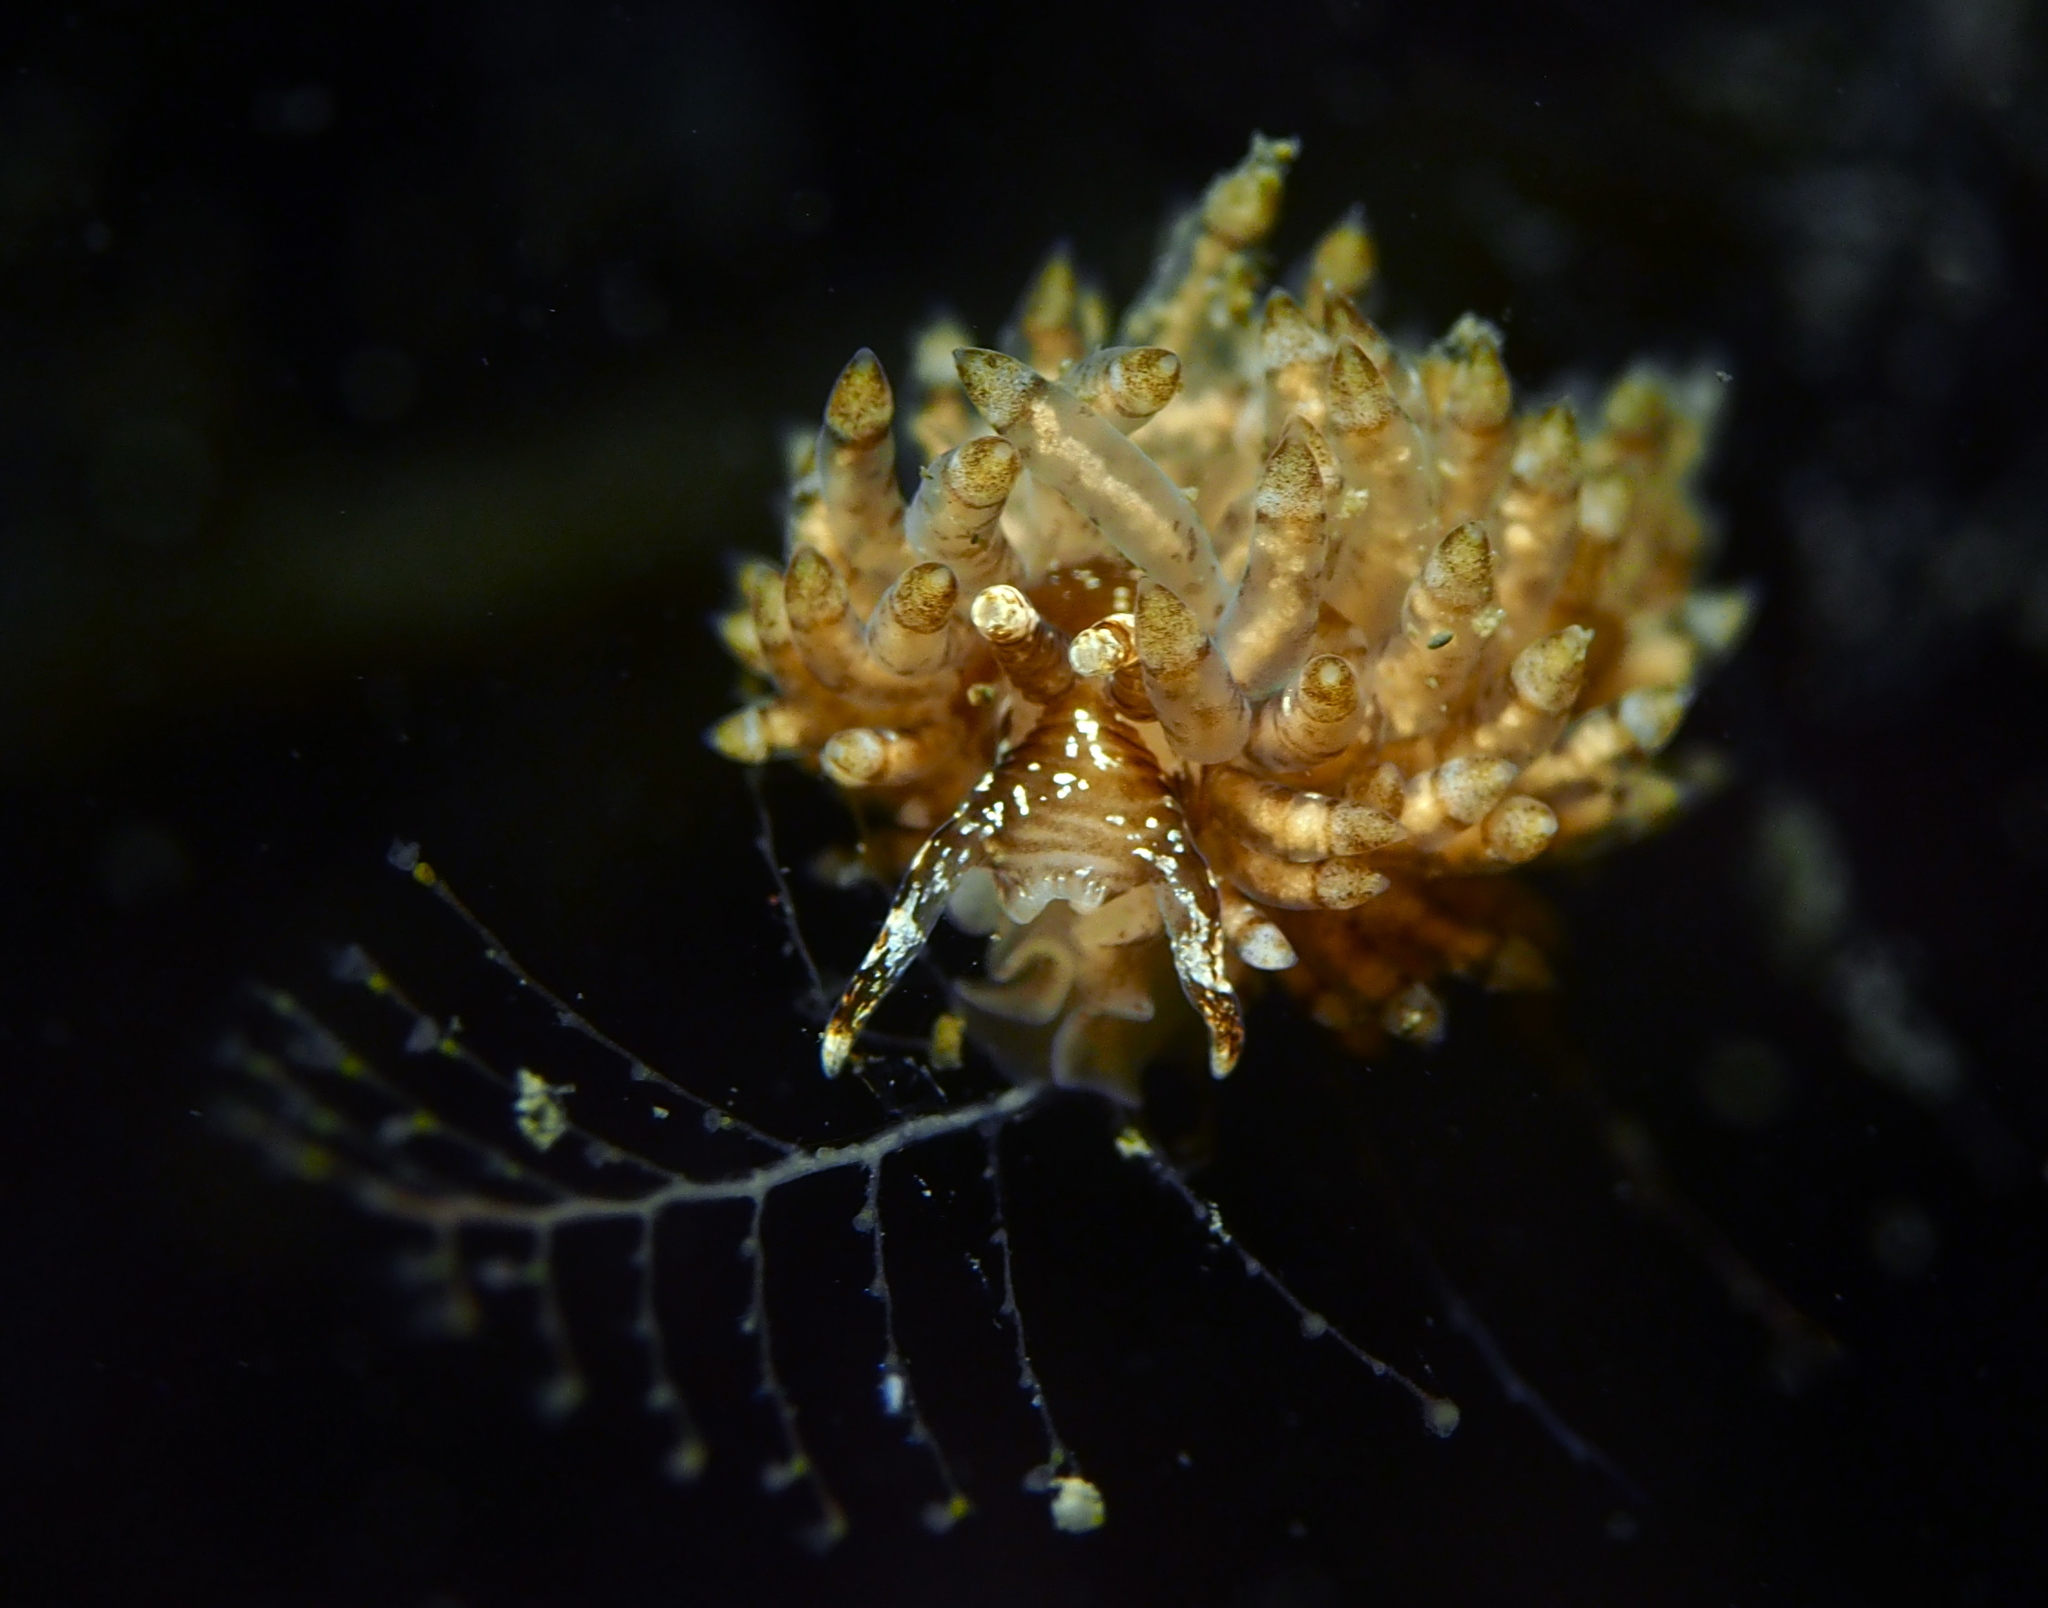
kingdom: Animalia
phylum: Mollusca
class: Gastropoda
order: Nudibranchia
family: Eubranchidae
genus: Eubranchus
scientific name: Eubranchus vittatus
